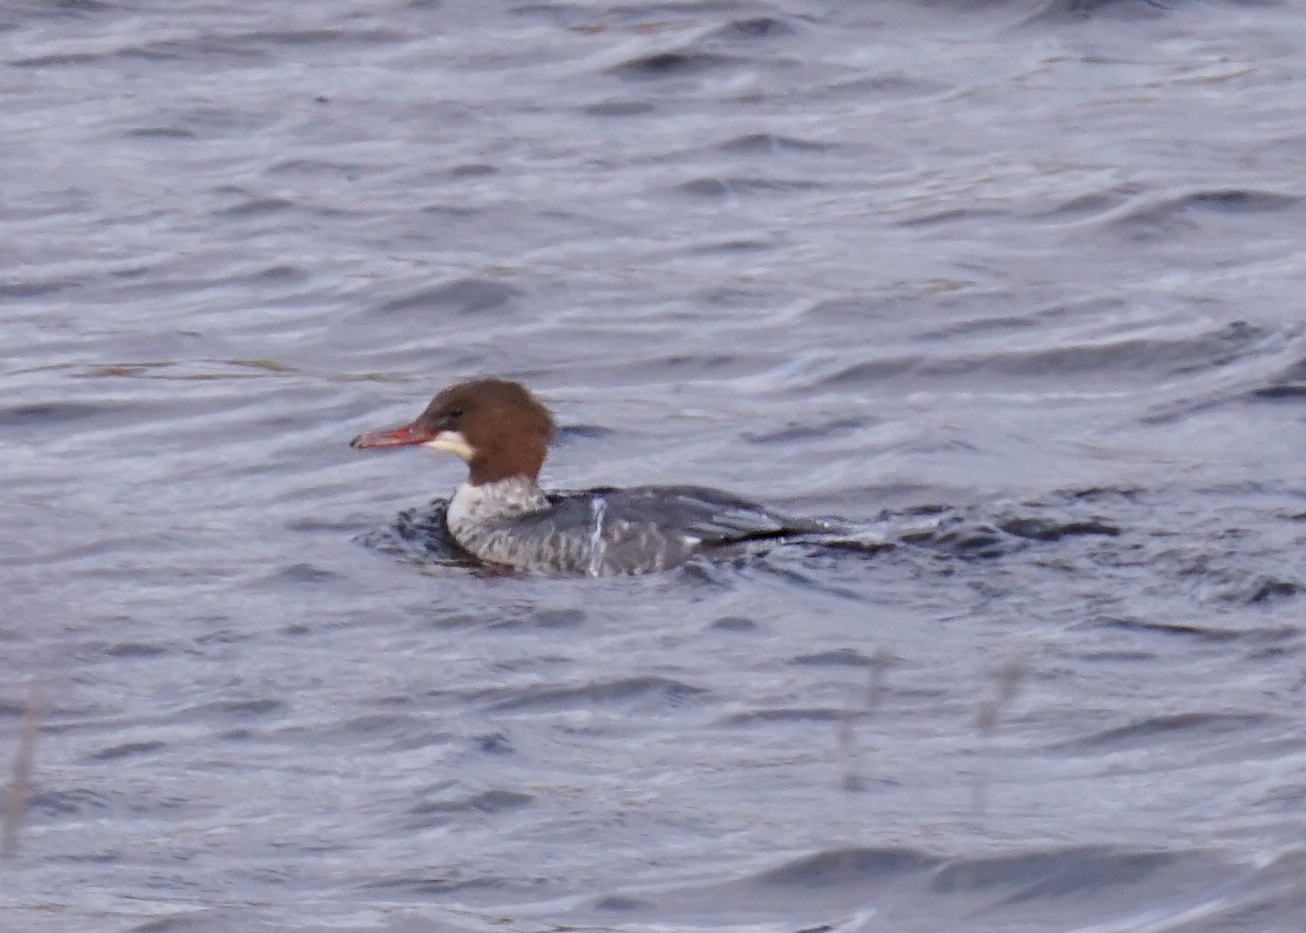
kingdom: Animalia
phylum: Chordata
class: Aves
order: Anseriformes
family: Anatidae
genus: Mergus
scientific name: Mergus merganser
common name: Common merganser
